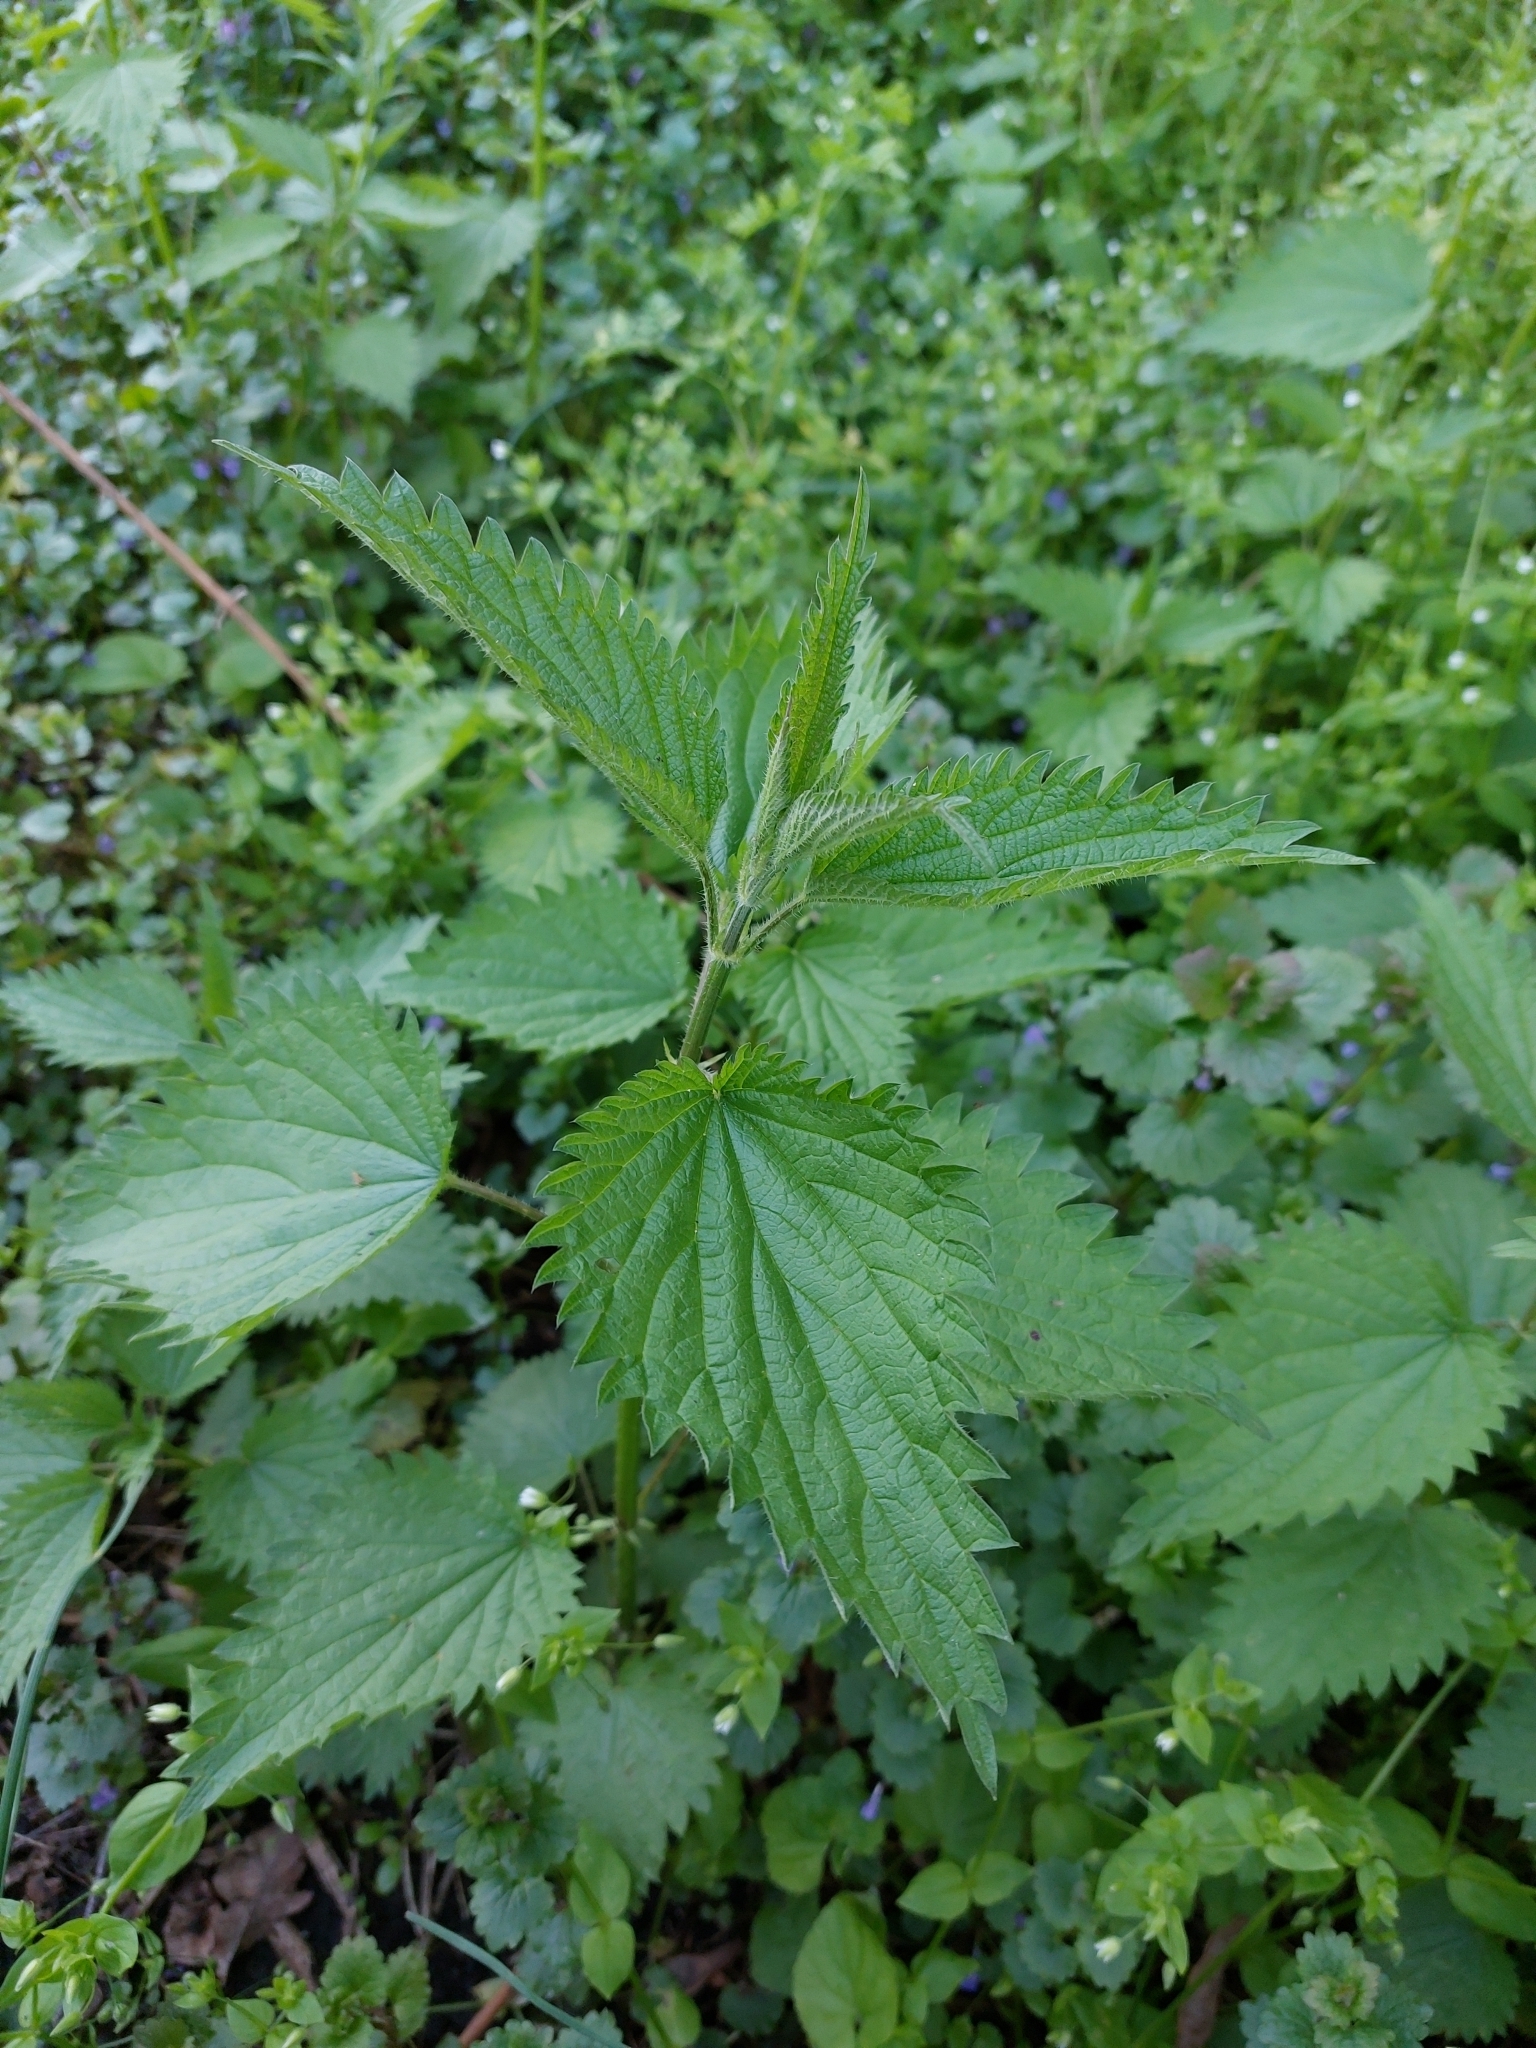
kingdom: Plantae
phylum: Tracheophyta
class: Magnoliopsida
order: Rosales
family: Urticaceae
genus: Urtica
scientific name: Urtica dioica
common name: Common nettle
